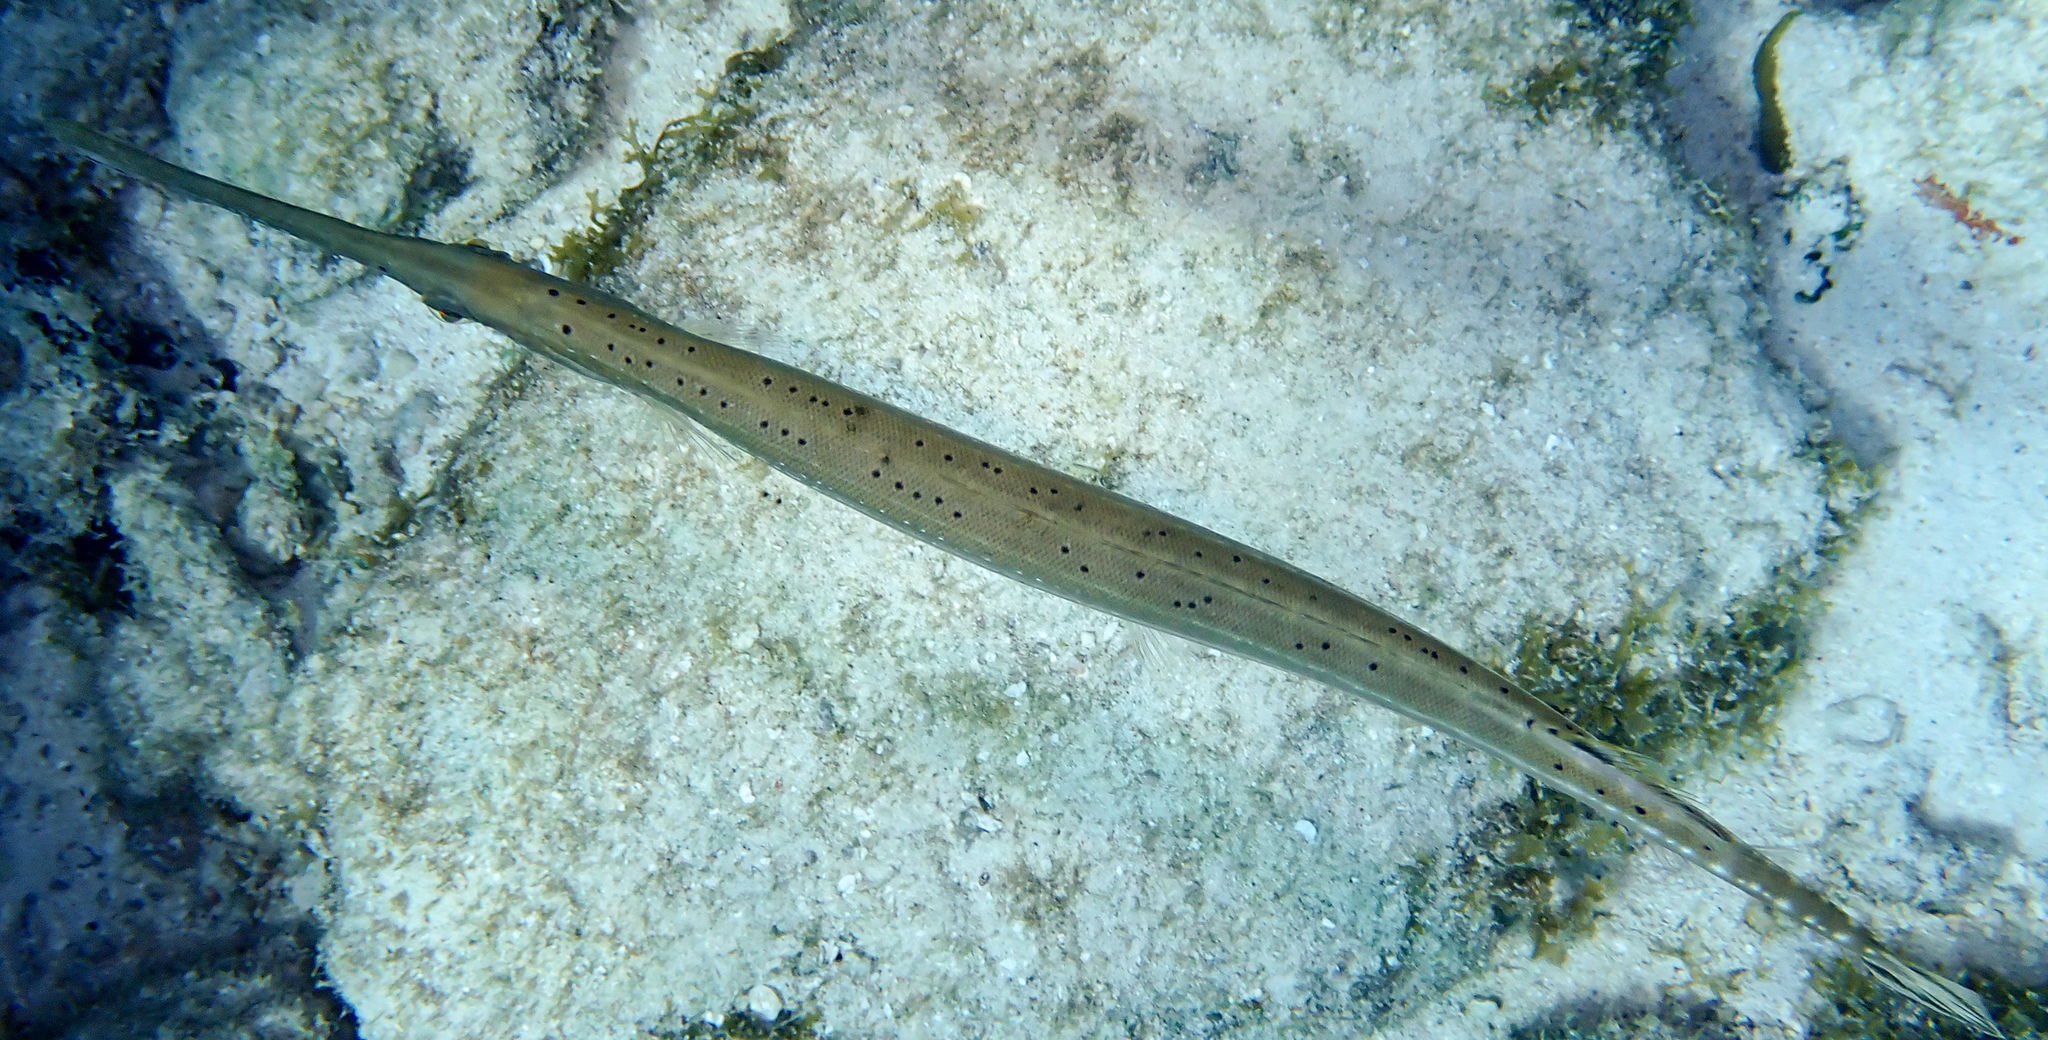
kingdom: Animalia
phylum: Chordata
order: Syngnathiformes
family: Aulostomidae
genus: Aulostomus
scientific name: Aulostomus maculatus
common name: West atlantic trumpetfish
